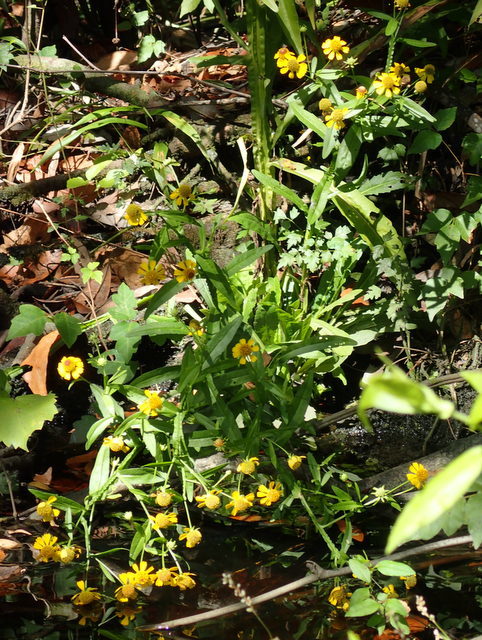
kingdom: Plantae
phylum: Tracheophyta
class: Magnoliopsida
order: Asterales
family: Asteraceae
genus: Helenium
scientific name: Helenium autumnale
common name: Sneezeweed
